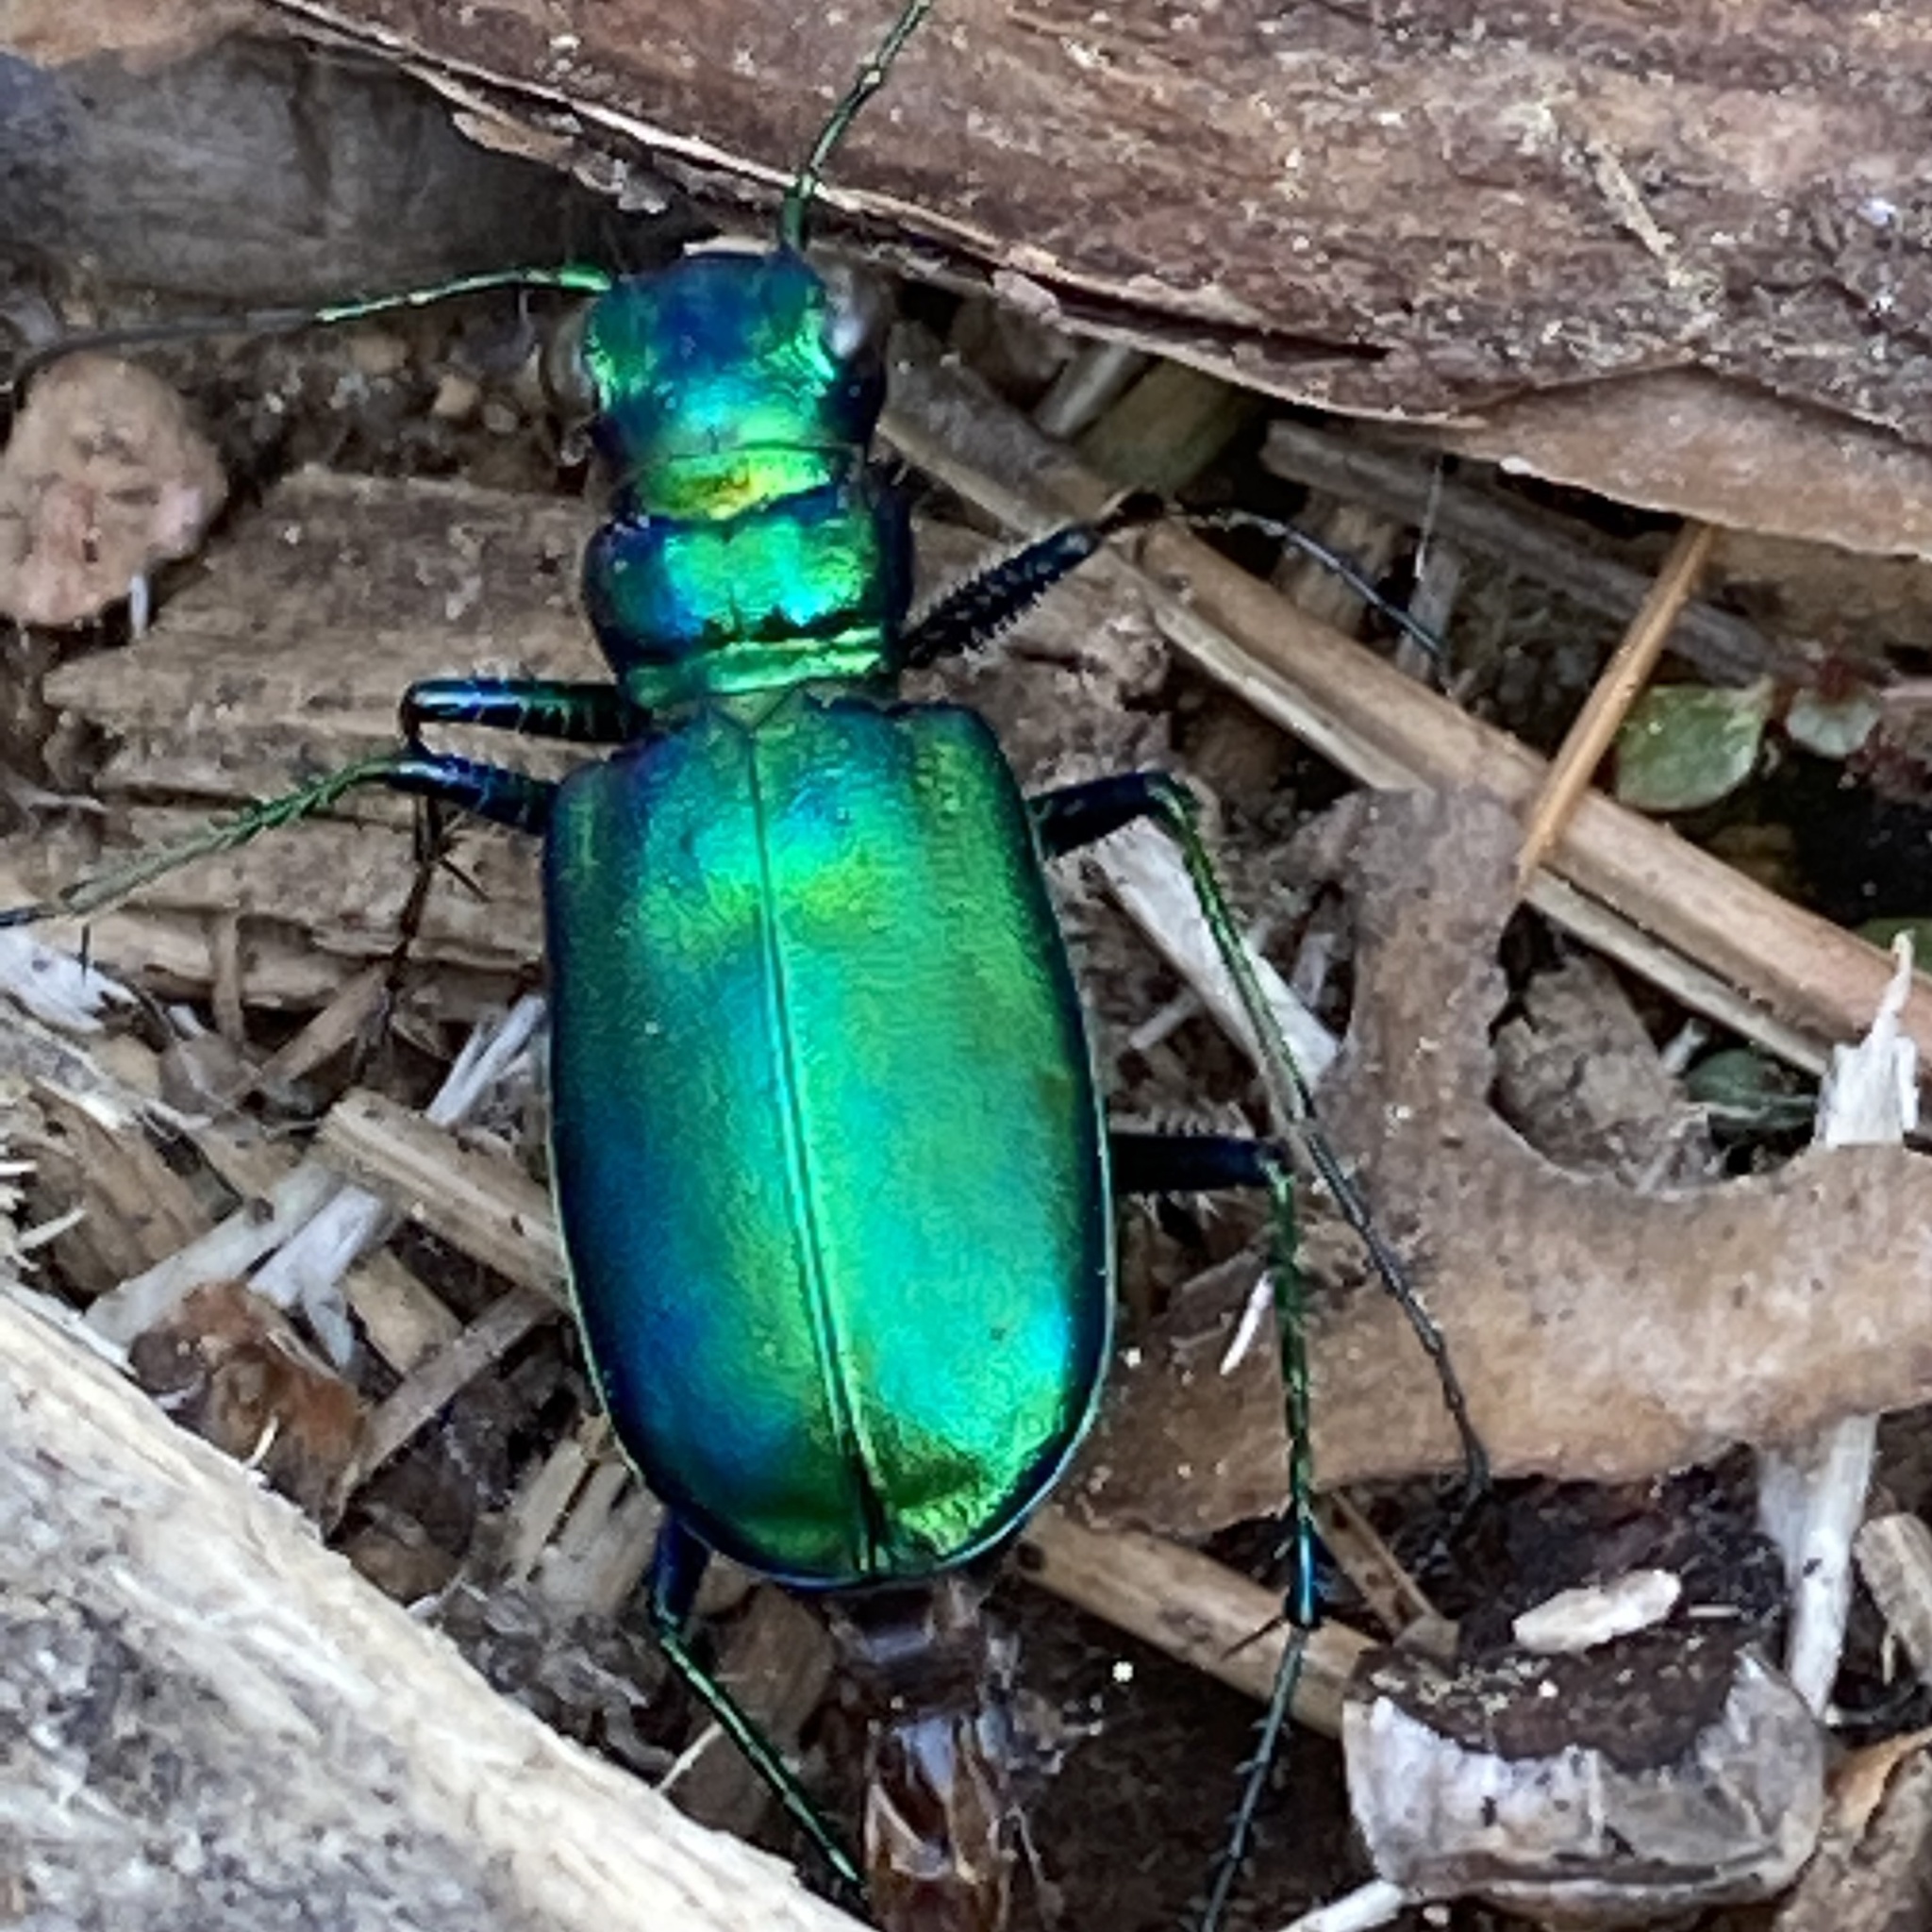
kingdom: Animalia
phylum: Arthropoda
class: Insecta
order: Coleoptera
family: Carabidae
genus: Cicindela
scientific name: Cicindela denikei
